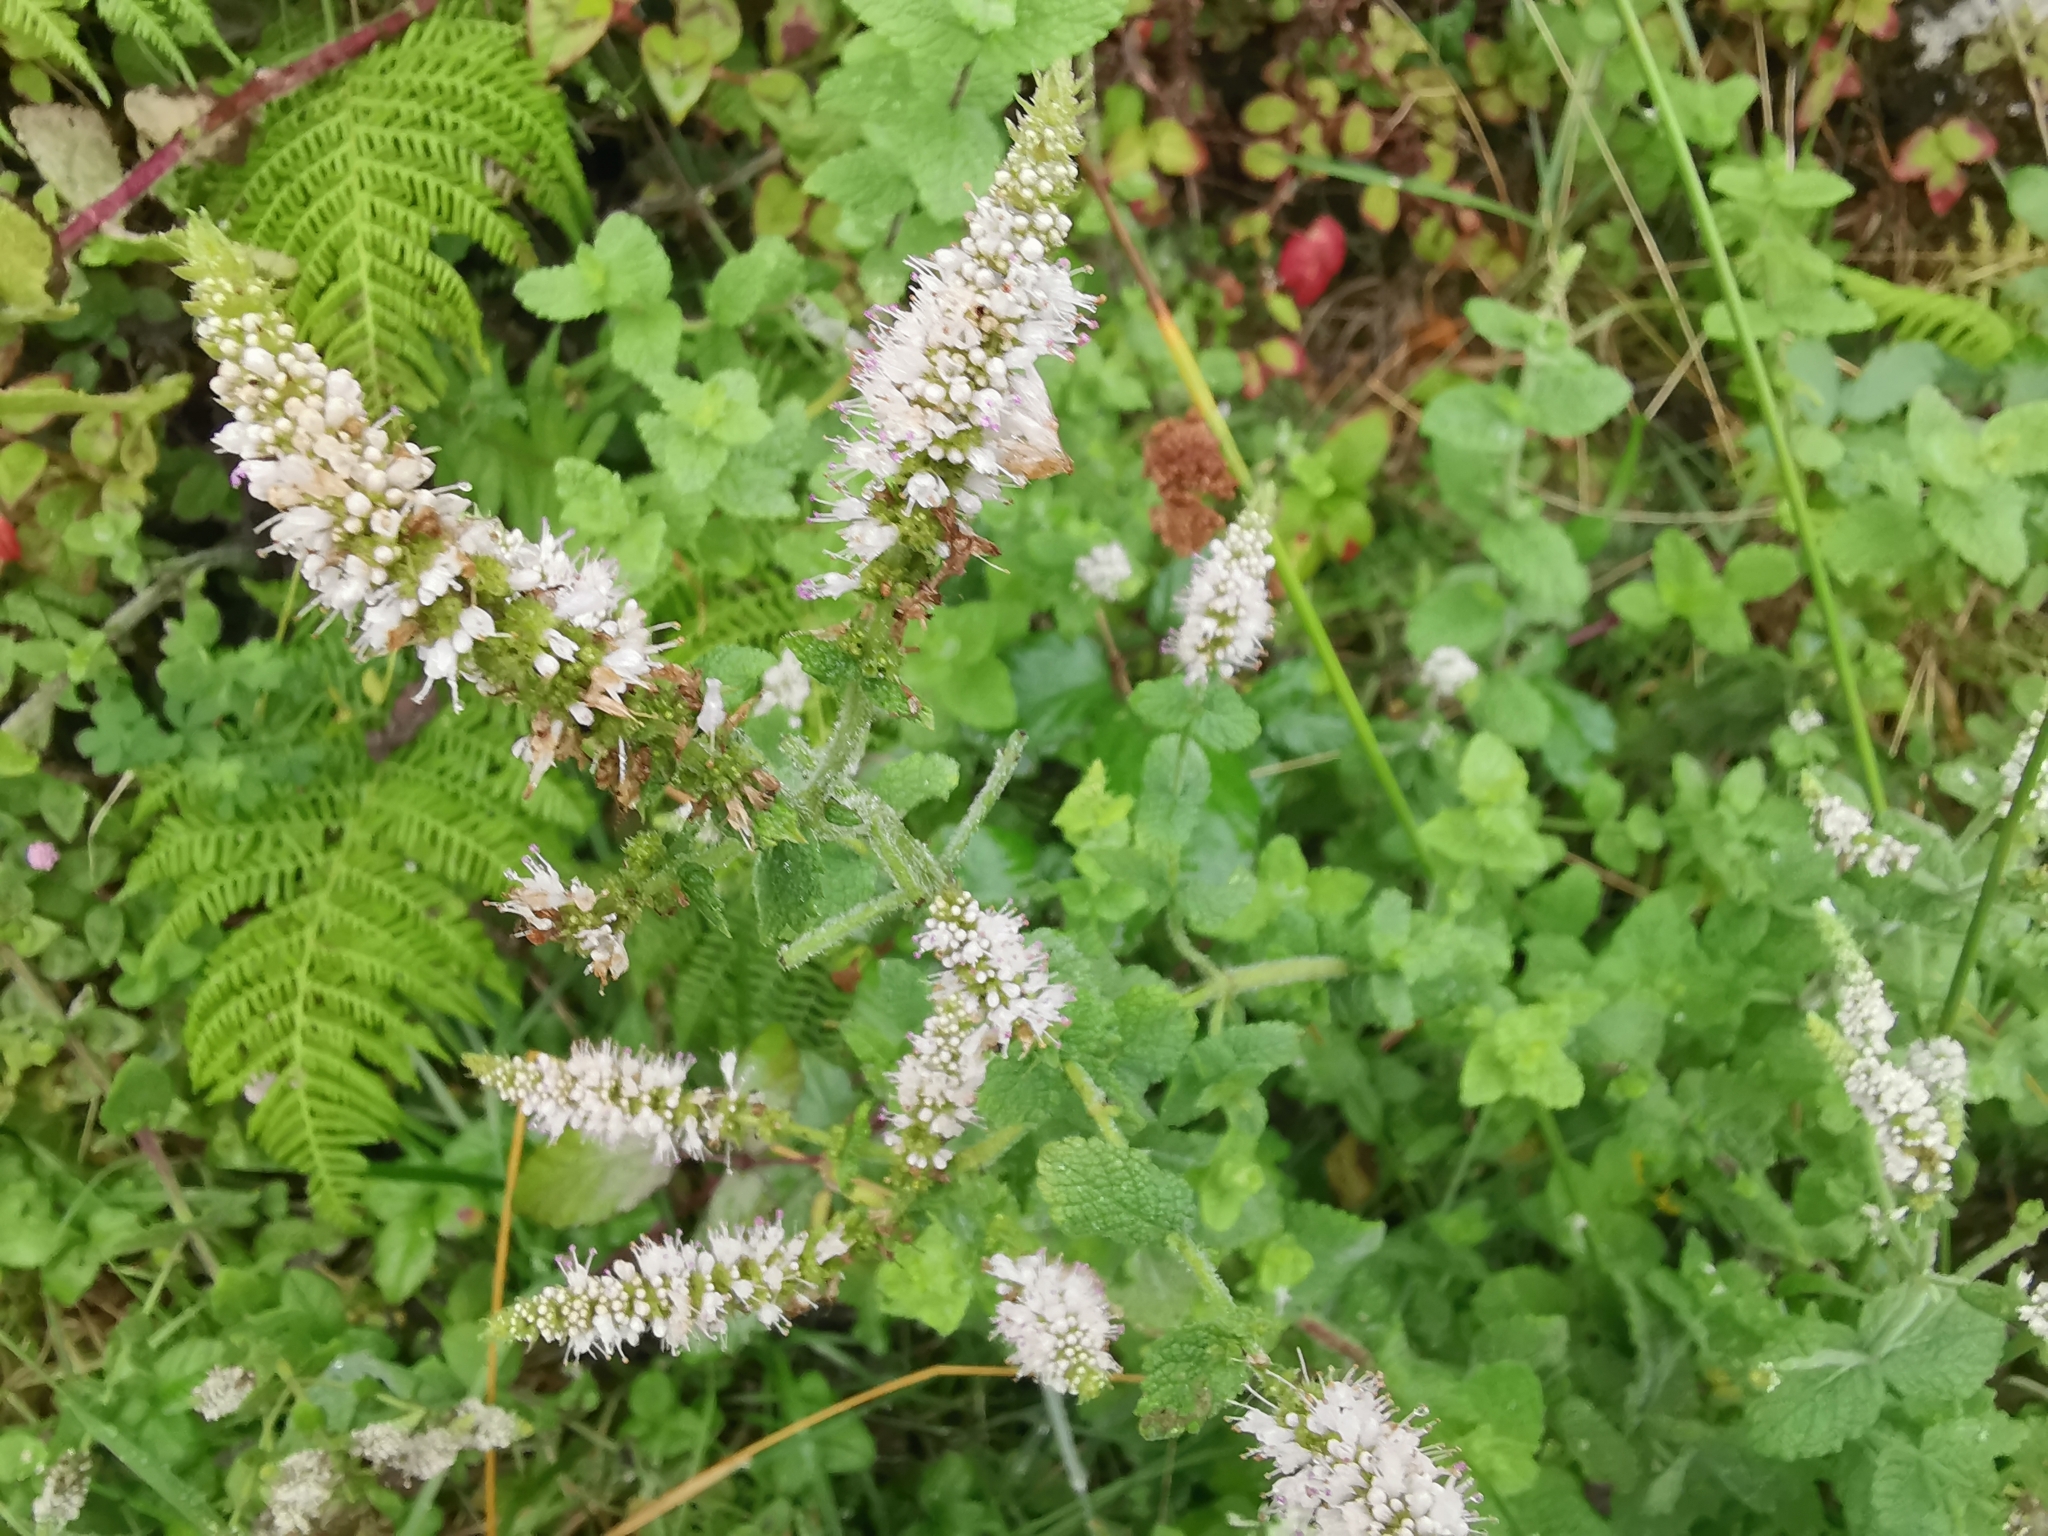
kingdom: Plantae
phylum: Tracheophyta
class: Magnoliopsida
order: Lamiales
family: Lamiaceae
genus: Mentha
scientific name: Mentha suaveolens
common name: Apple mint
